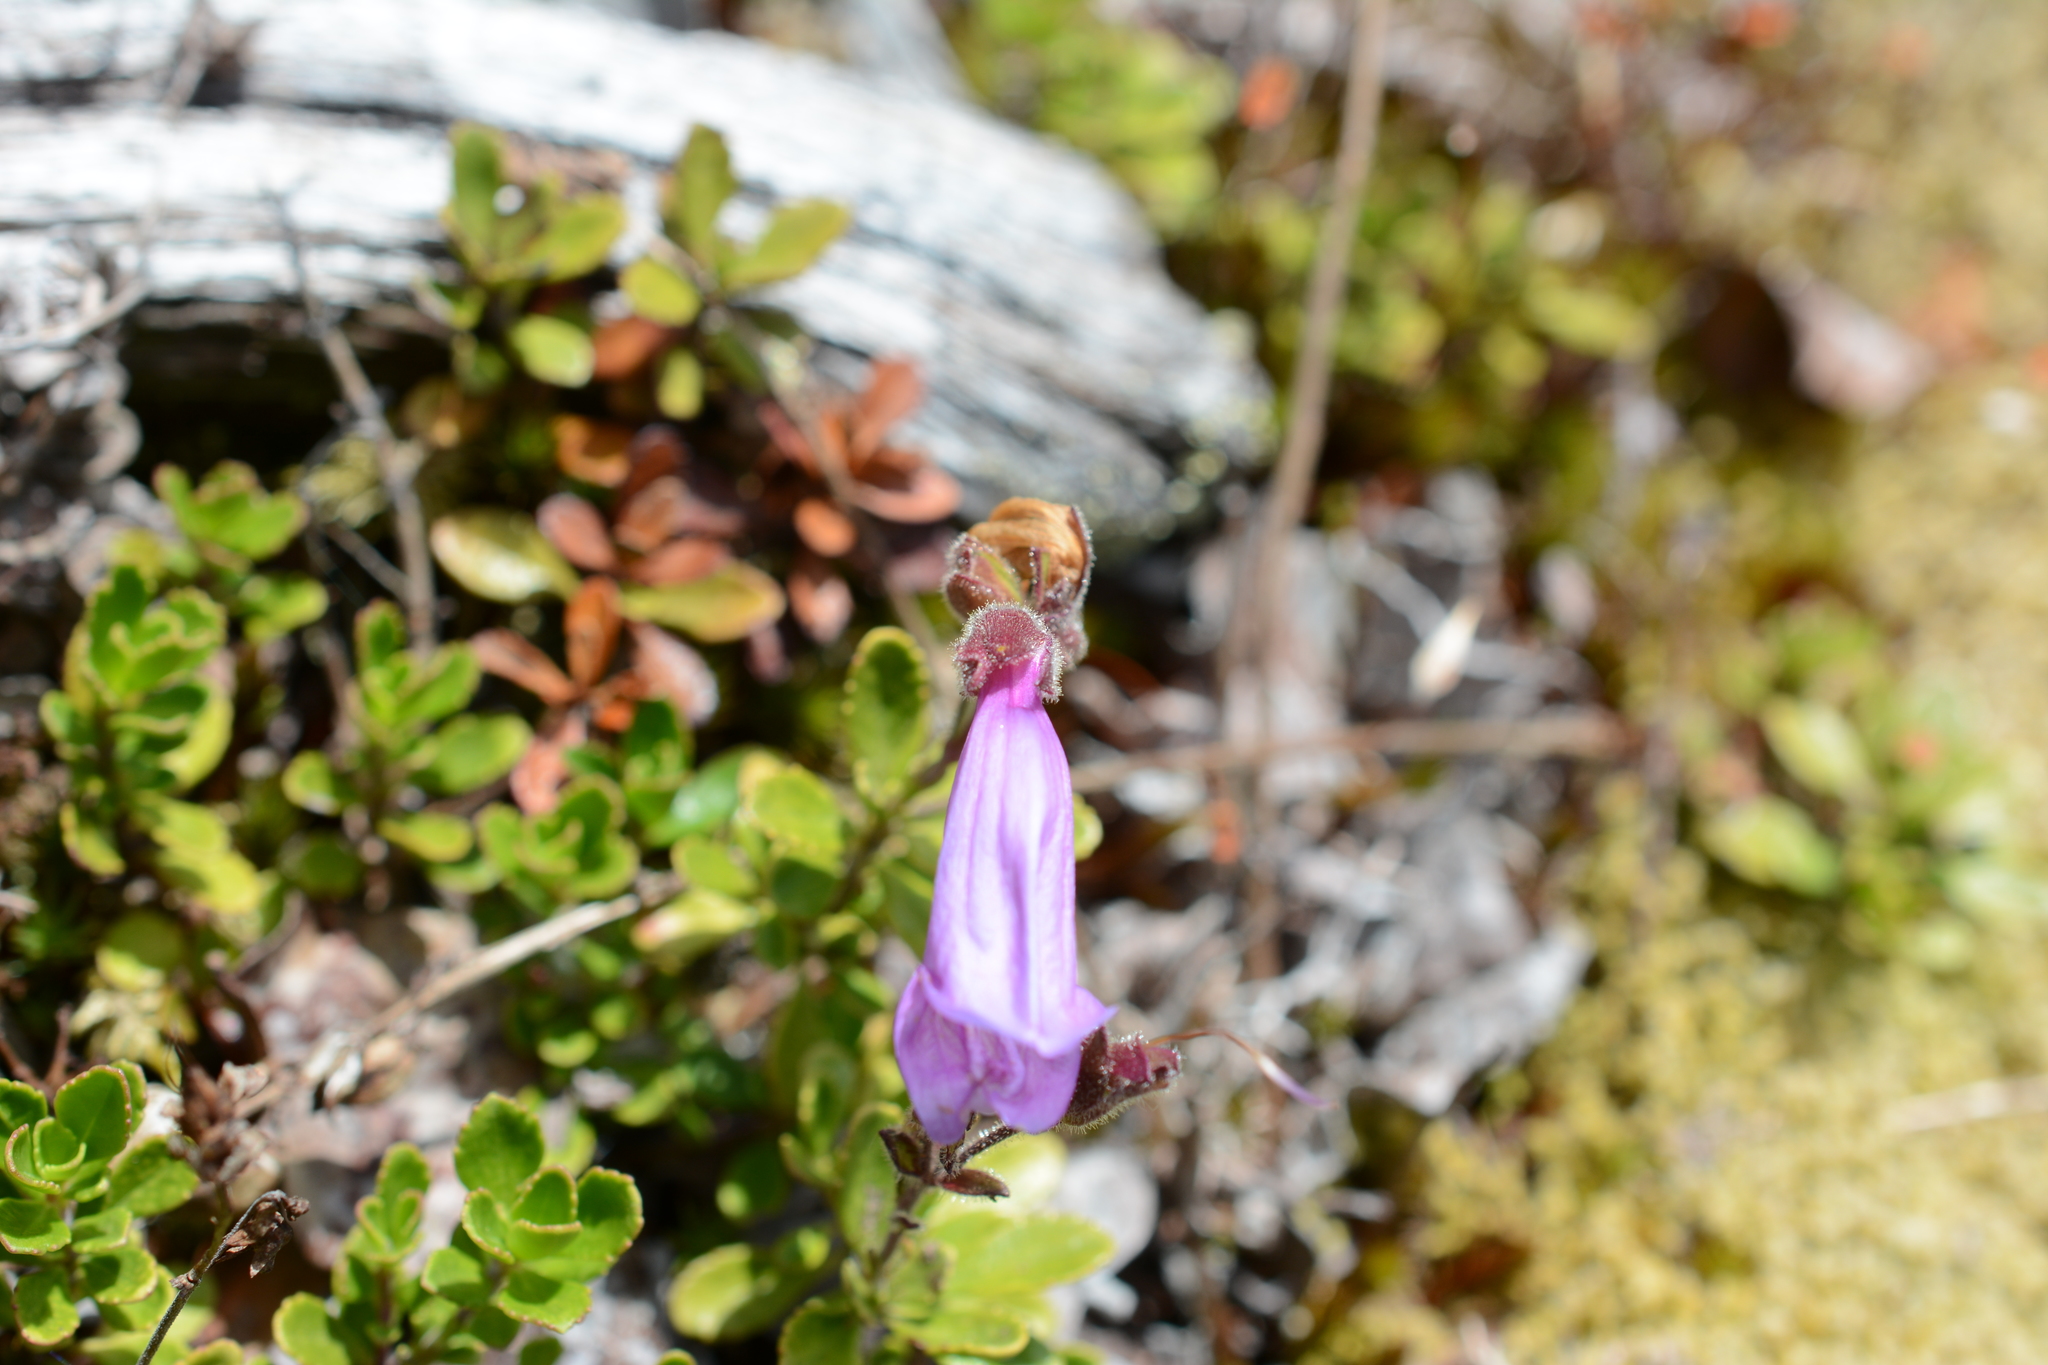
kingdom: Plantae
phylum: Tracheophyta
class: Magnoliopsida
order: Lamiales
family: Plantaginaceae
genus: Penstemon
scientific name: Penstemon davidsonii
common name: Davidson's penstemon
